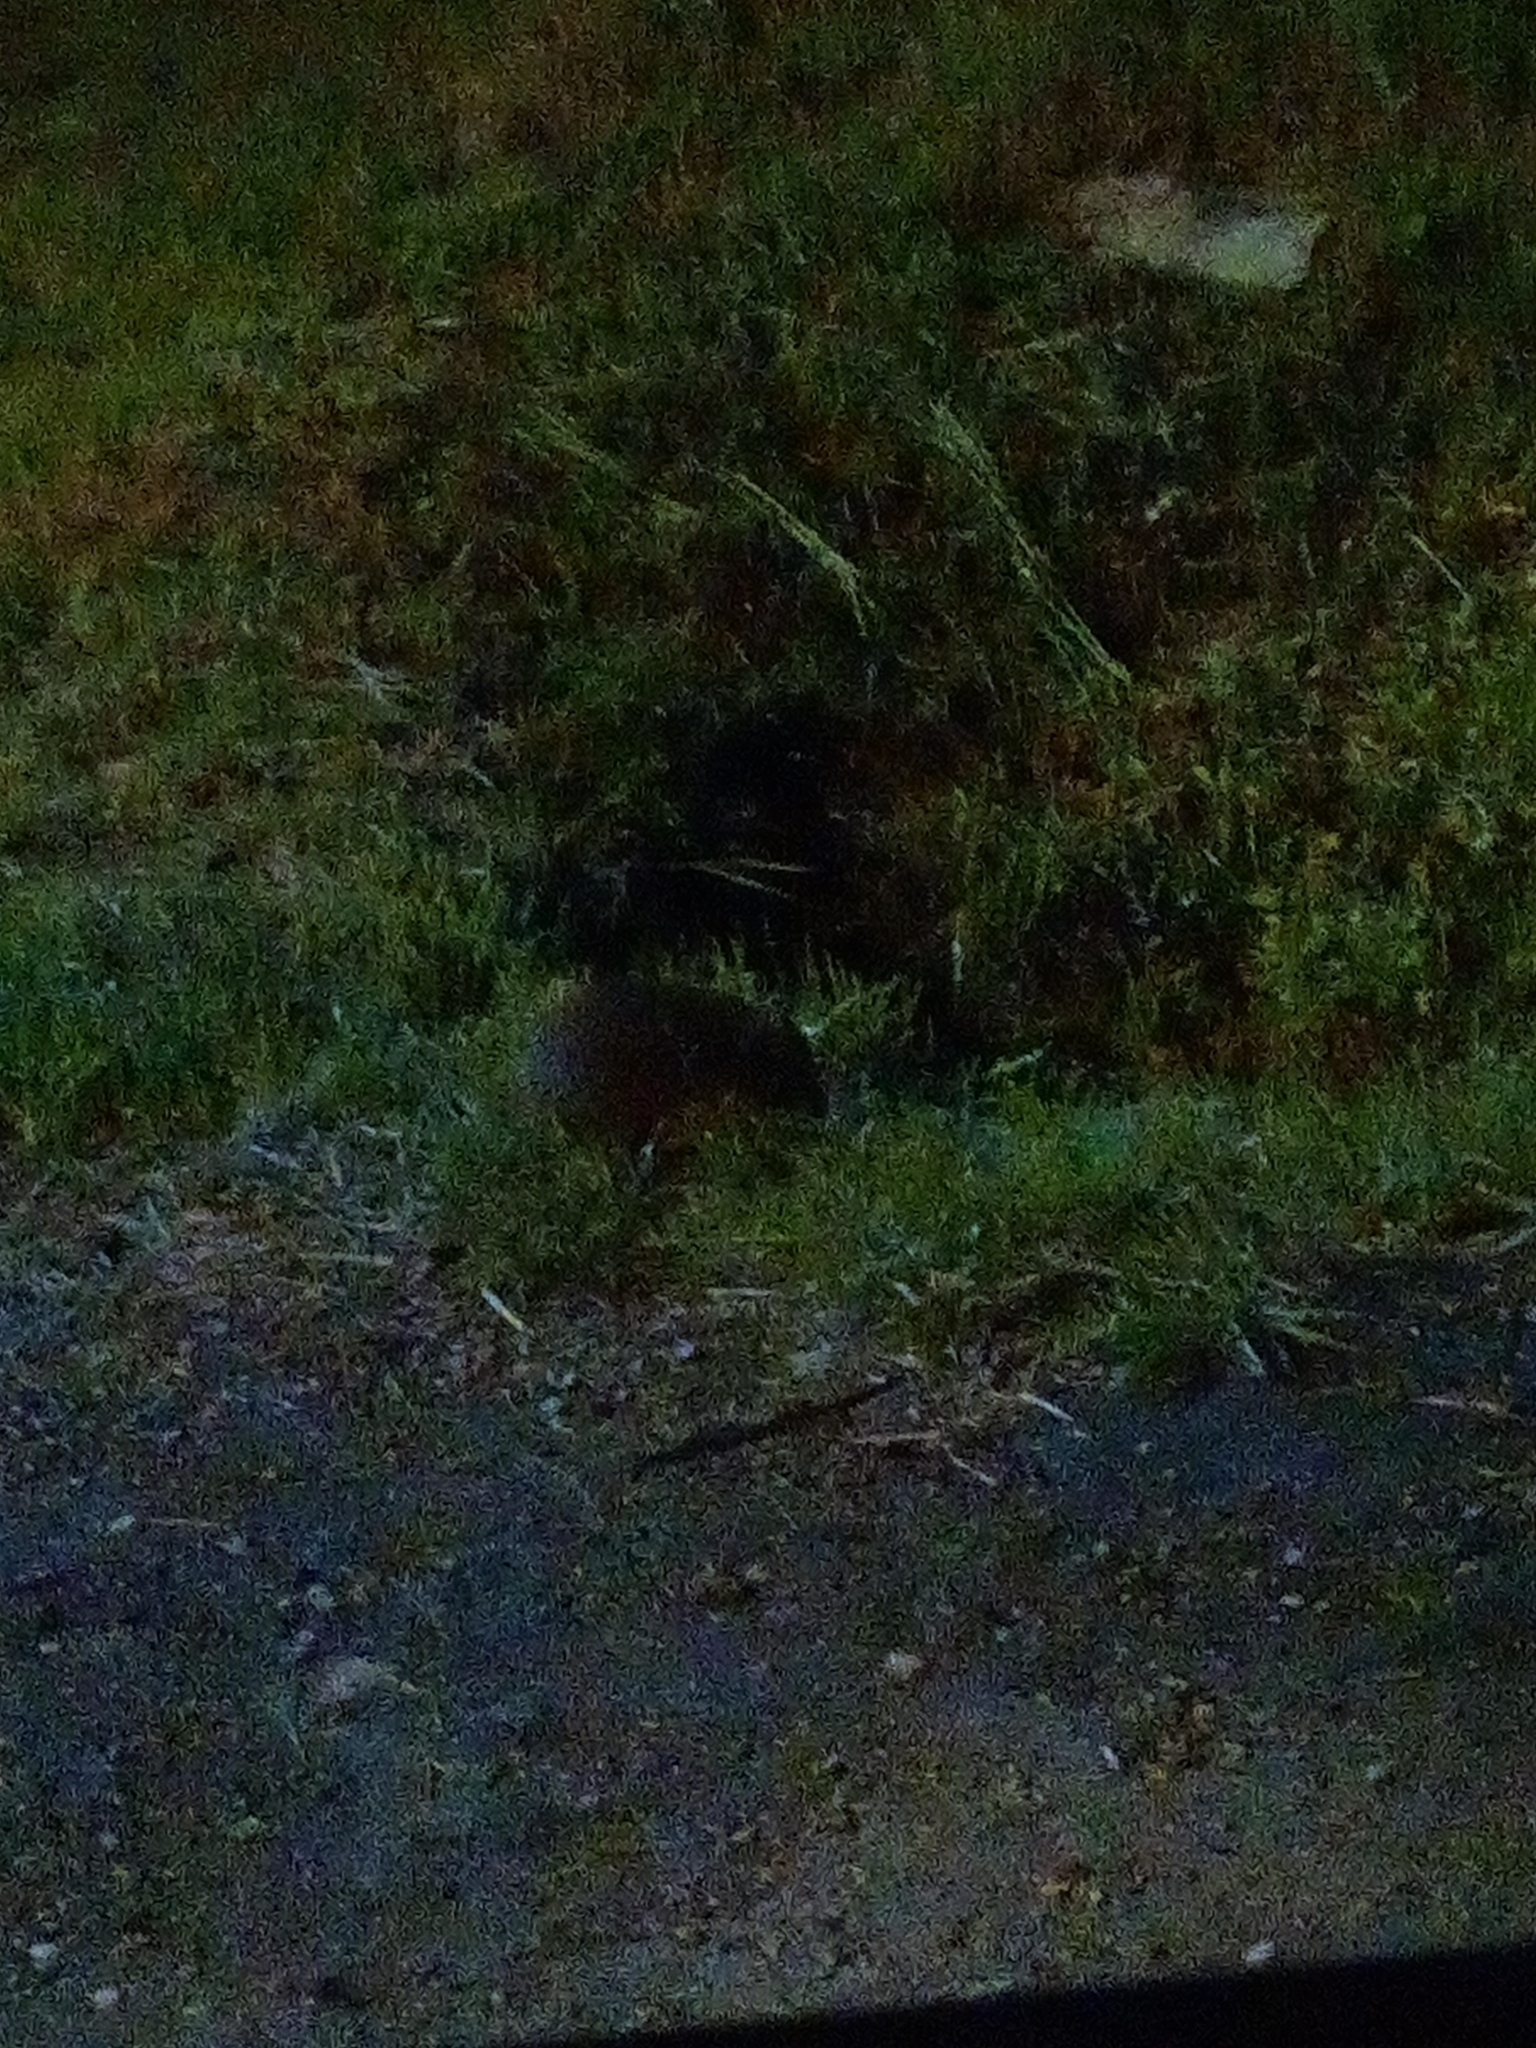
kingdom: Animalia
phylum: Chordata
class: Mammalia
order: Erinaceomorpha
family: Erinaceidae
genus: Erinaceus
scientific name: Erinaceus roumanicus
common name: Northern white-breasted hedgehog
